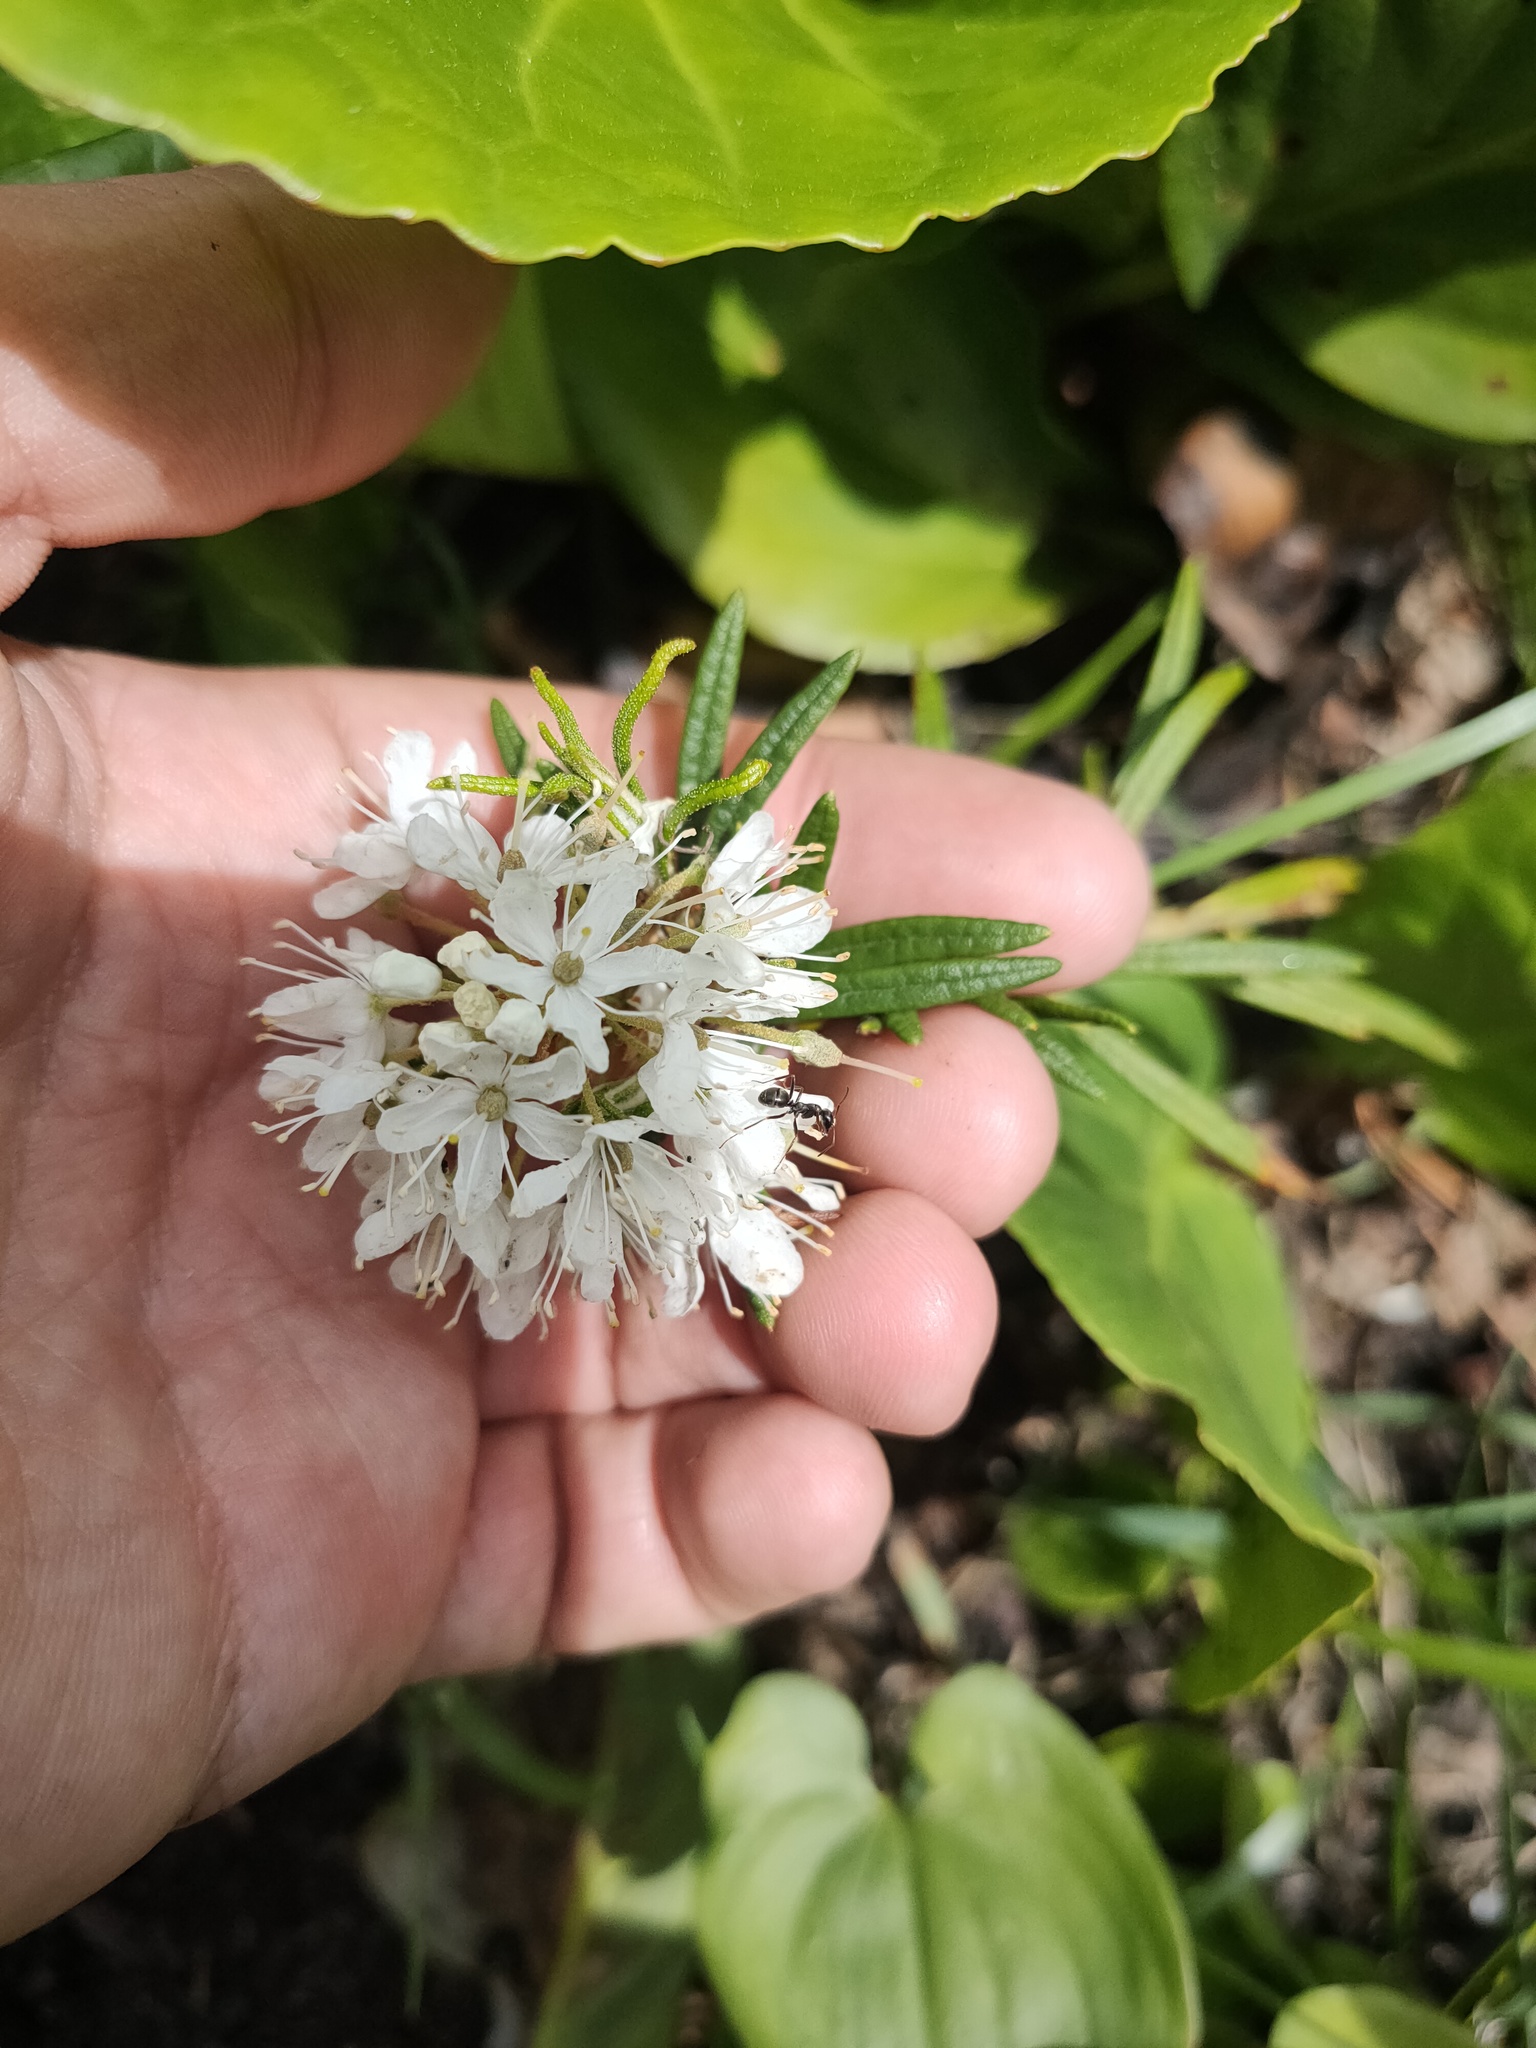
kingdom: Plantae
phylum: Tracheophyta
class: Magnoliopsida
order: Ericales
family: Ericaceae
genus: Rhododendron
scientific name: Rhododendron tomentosum
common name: Marsh labrador tea
